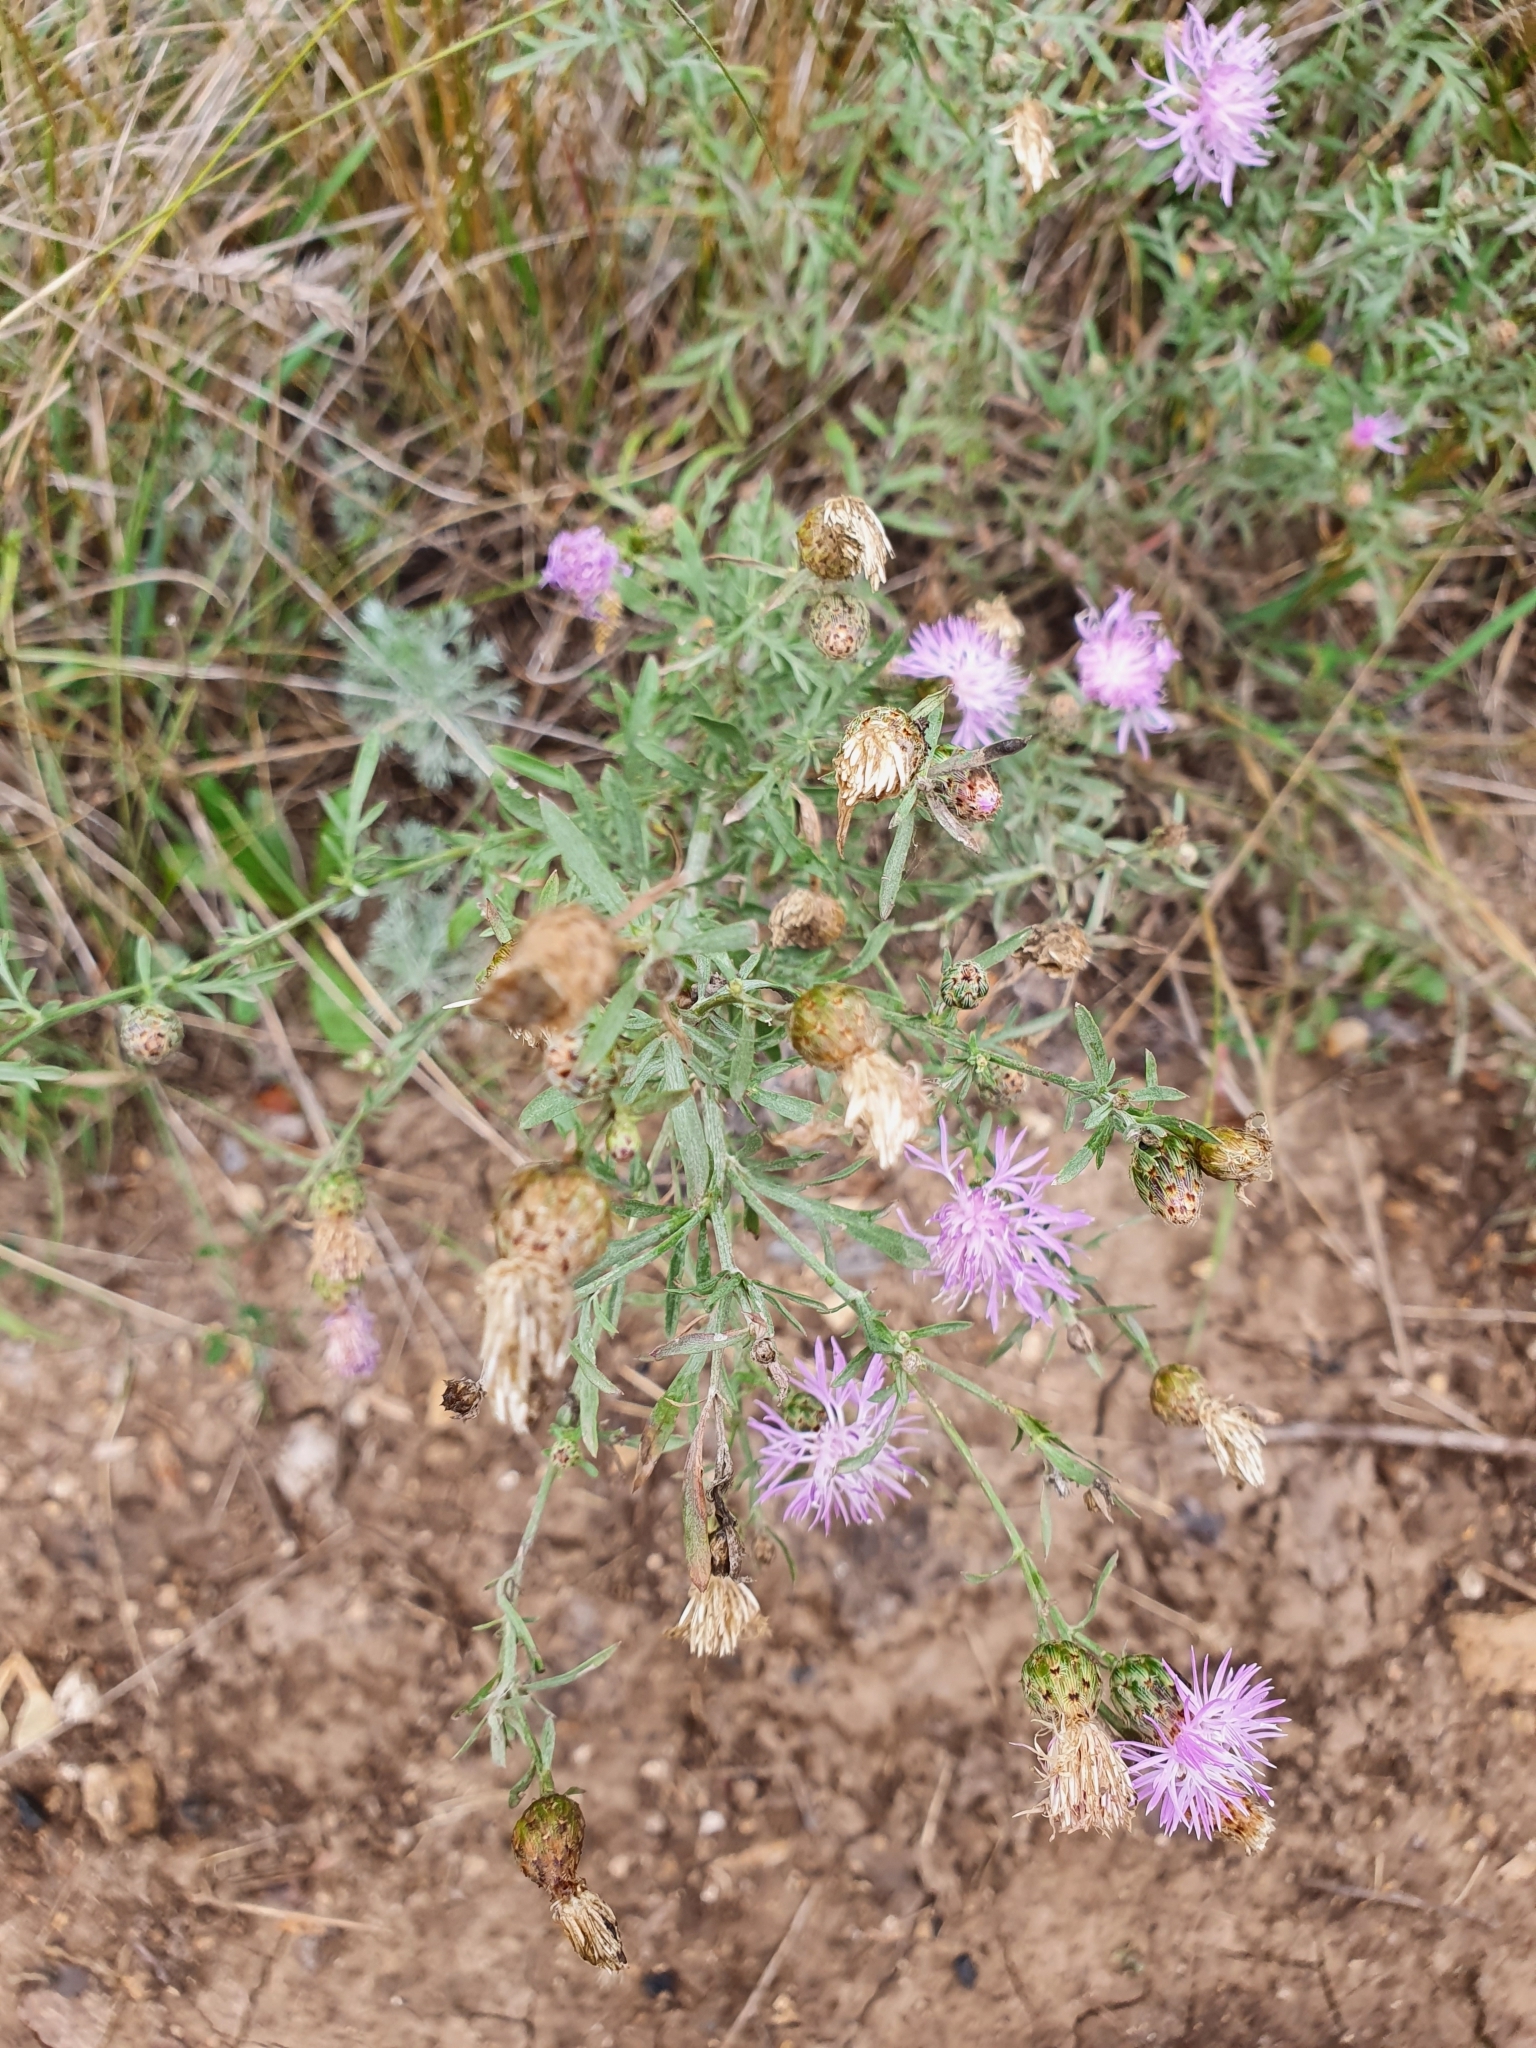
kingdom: Plantae
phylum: Tracheophyta
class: Magnoliopsida
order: Asterales
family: Asteraceae
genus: Centaurea
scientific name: Centaurea stoebe
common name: Spotted knapweed
